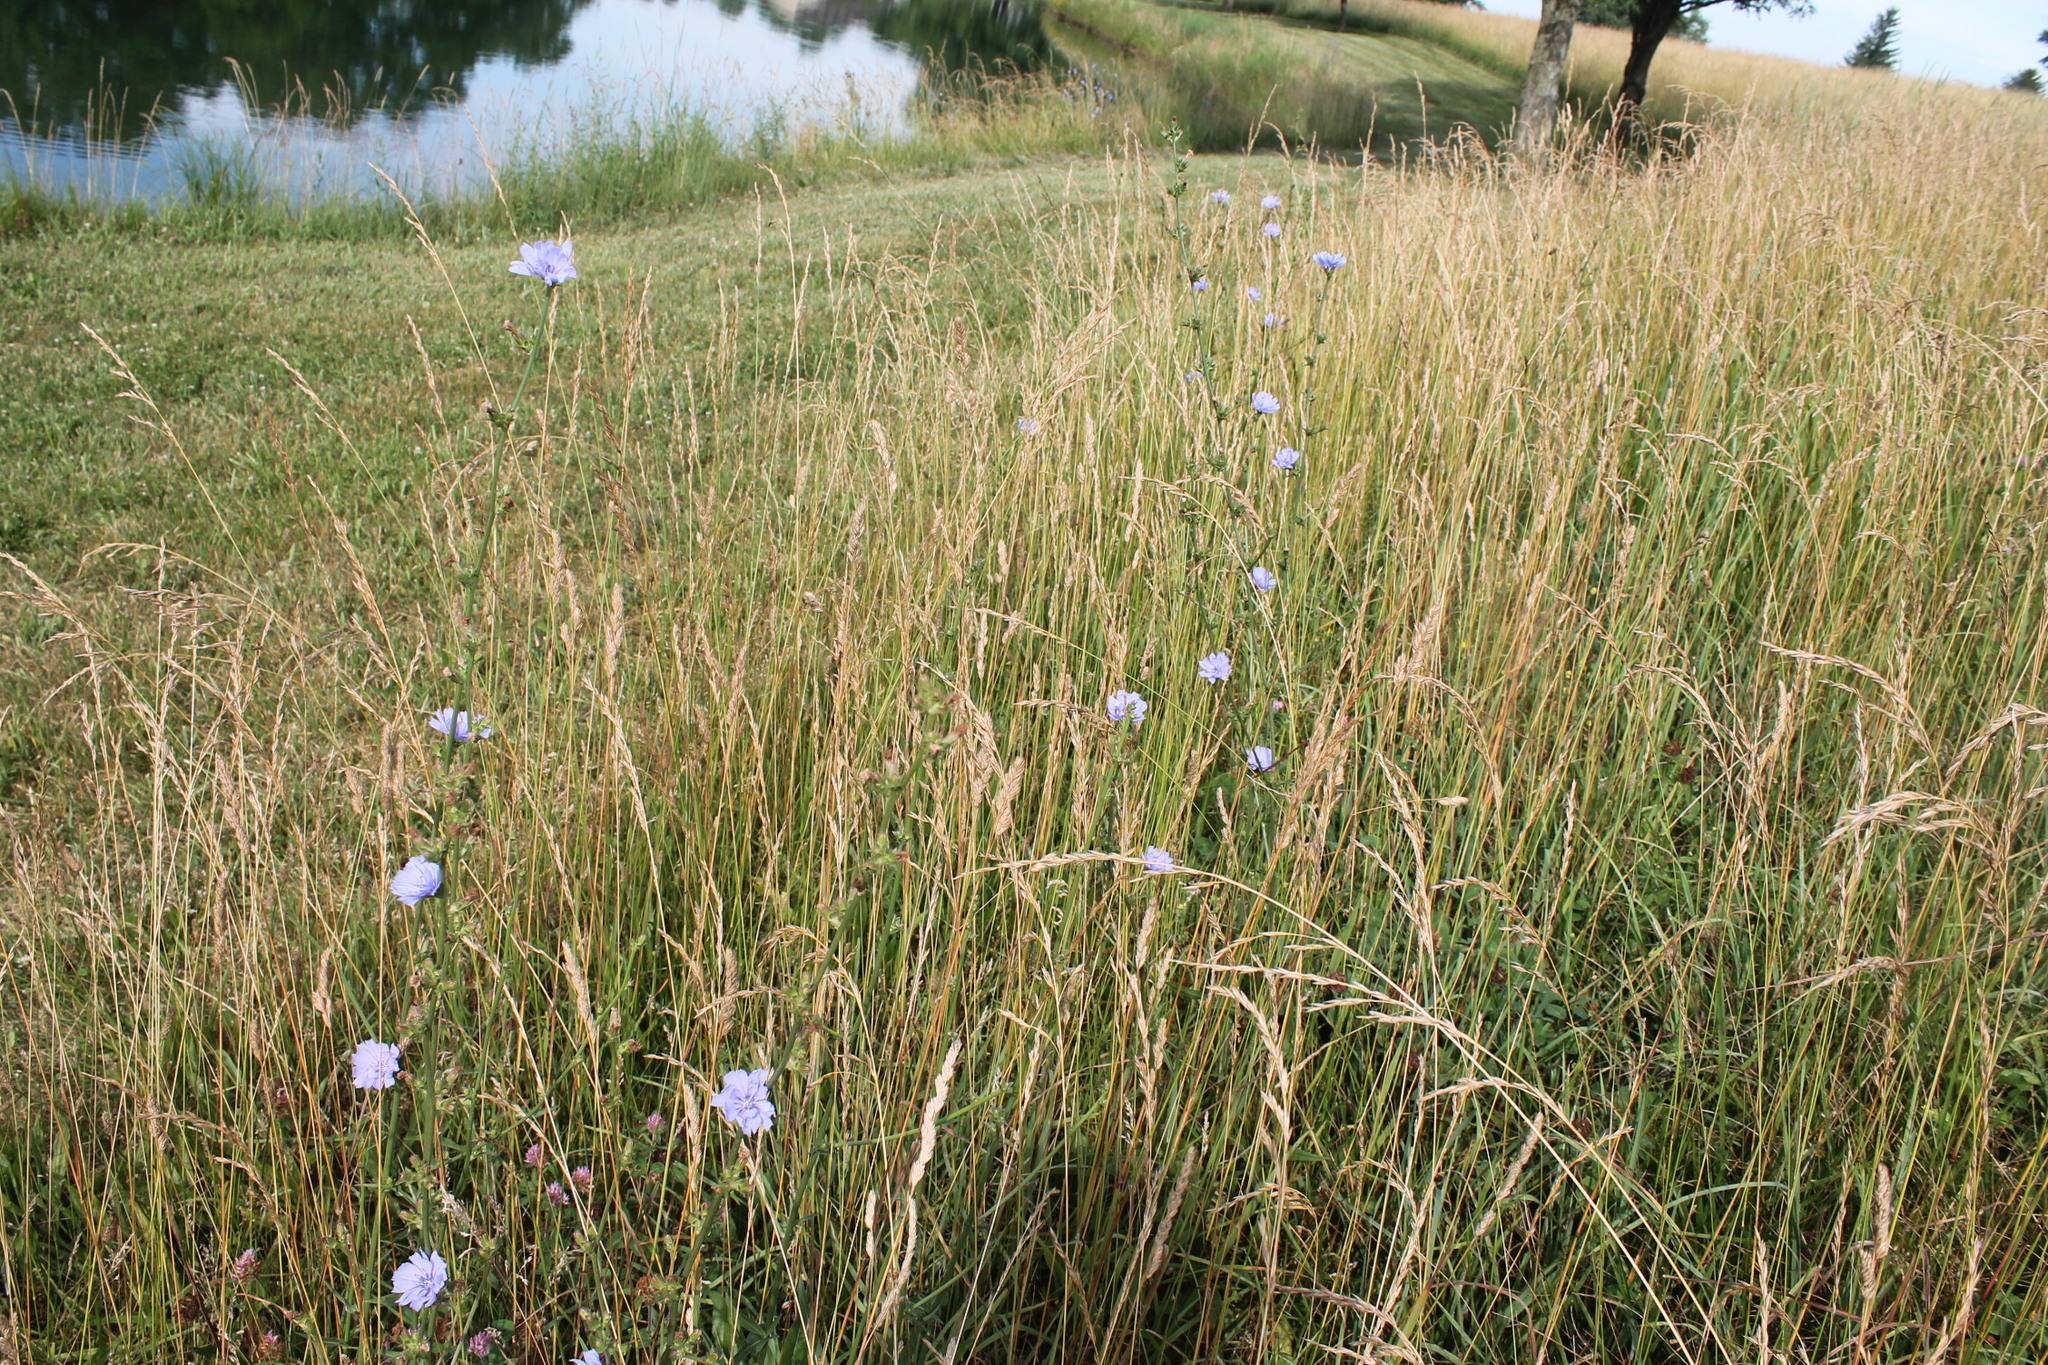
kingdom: Plantae
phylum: Tracheophyta
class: Magnoliopsida
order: Asterales
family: Asteraceae
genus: Cichorium
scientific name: Cichorium intybus
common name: Chicory
